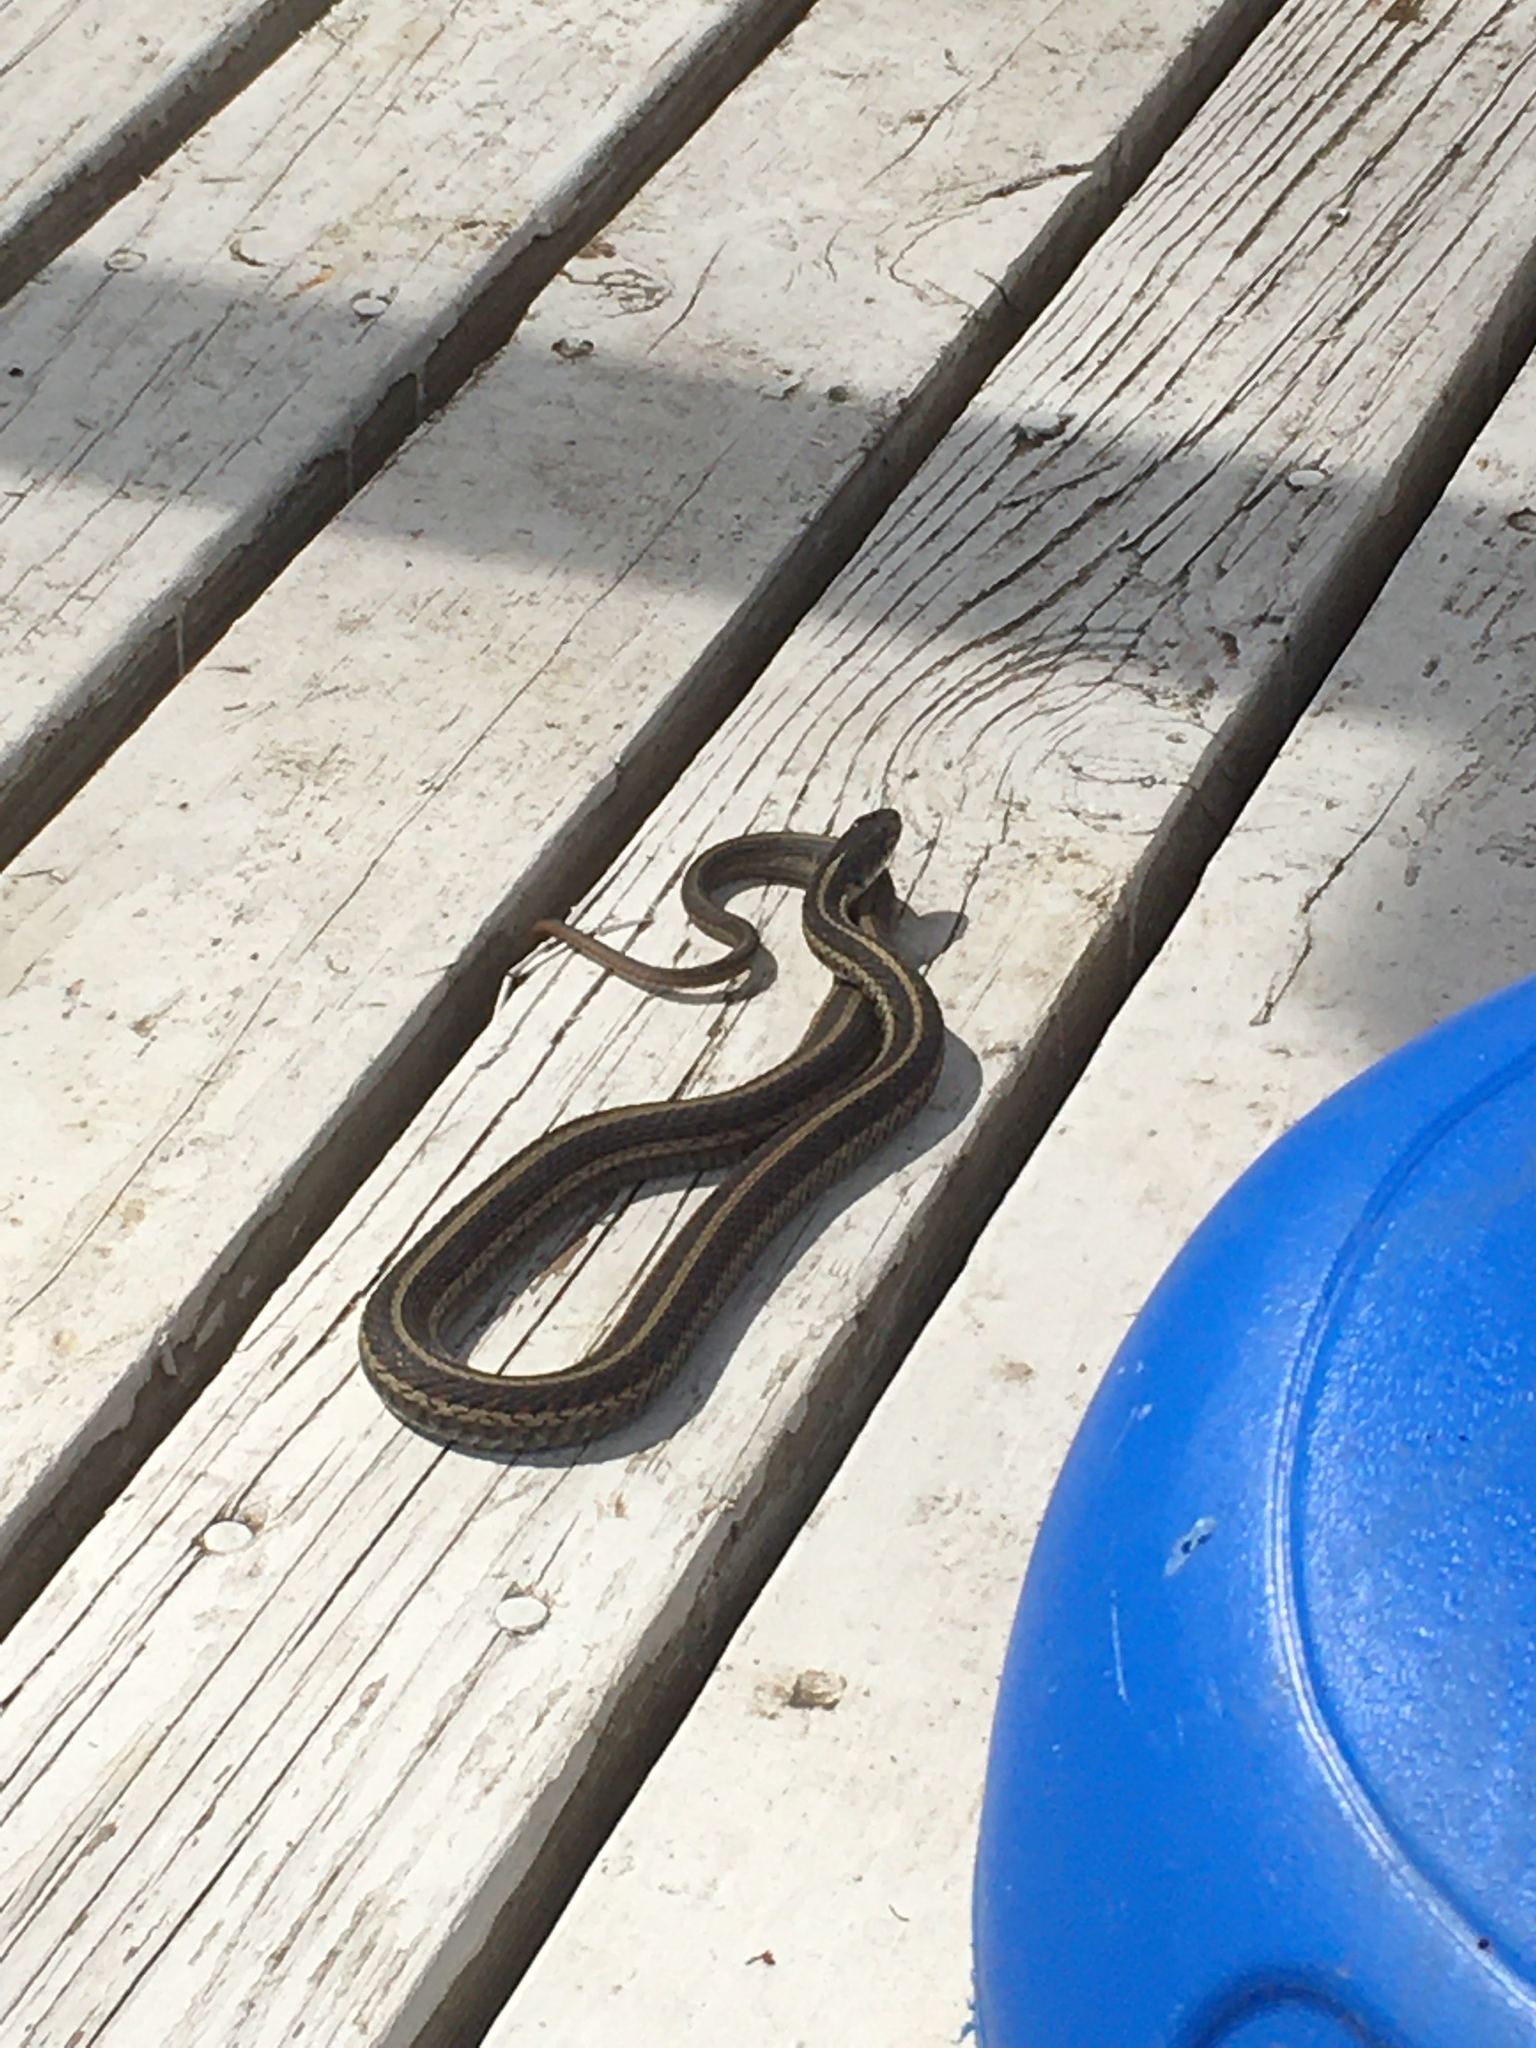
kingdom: Animalia
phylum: Chordata
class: Squamata
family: Colubridae
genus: Thamnophis
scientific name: Thamnophis sirtalis
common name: Common garter snake
